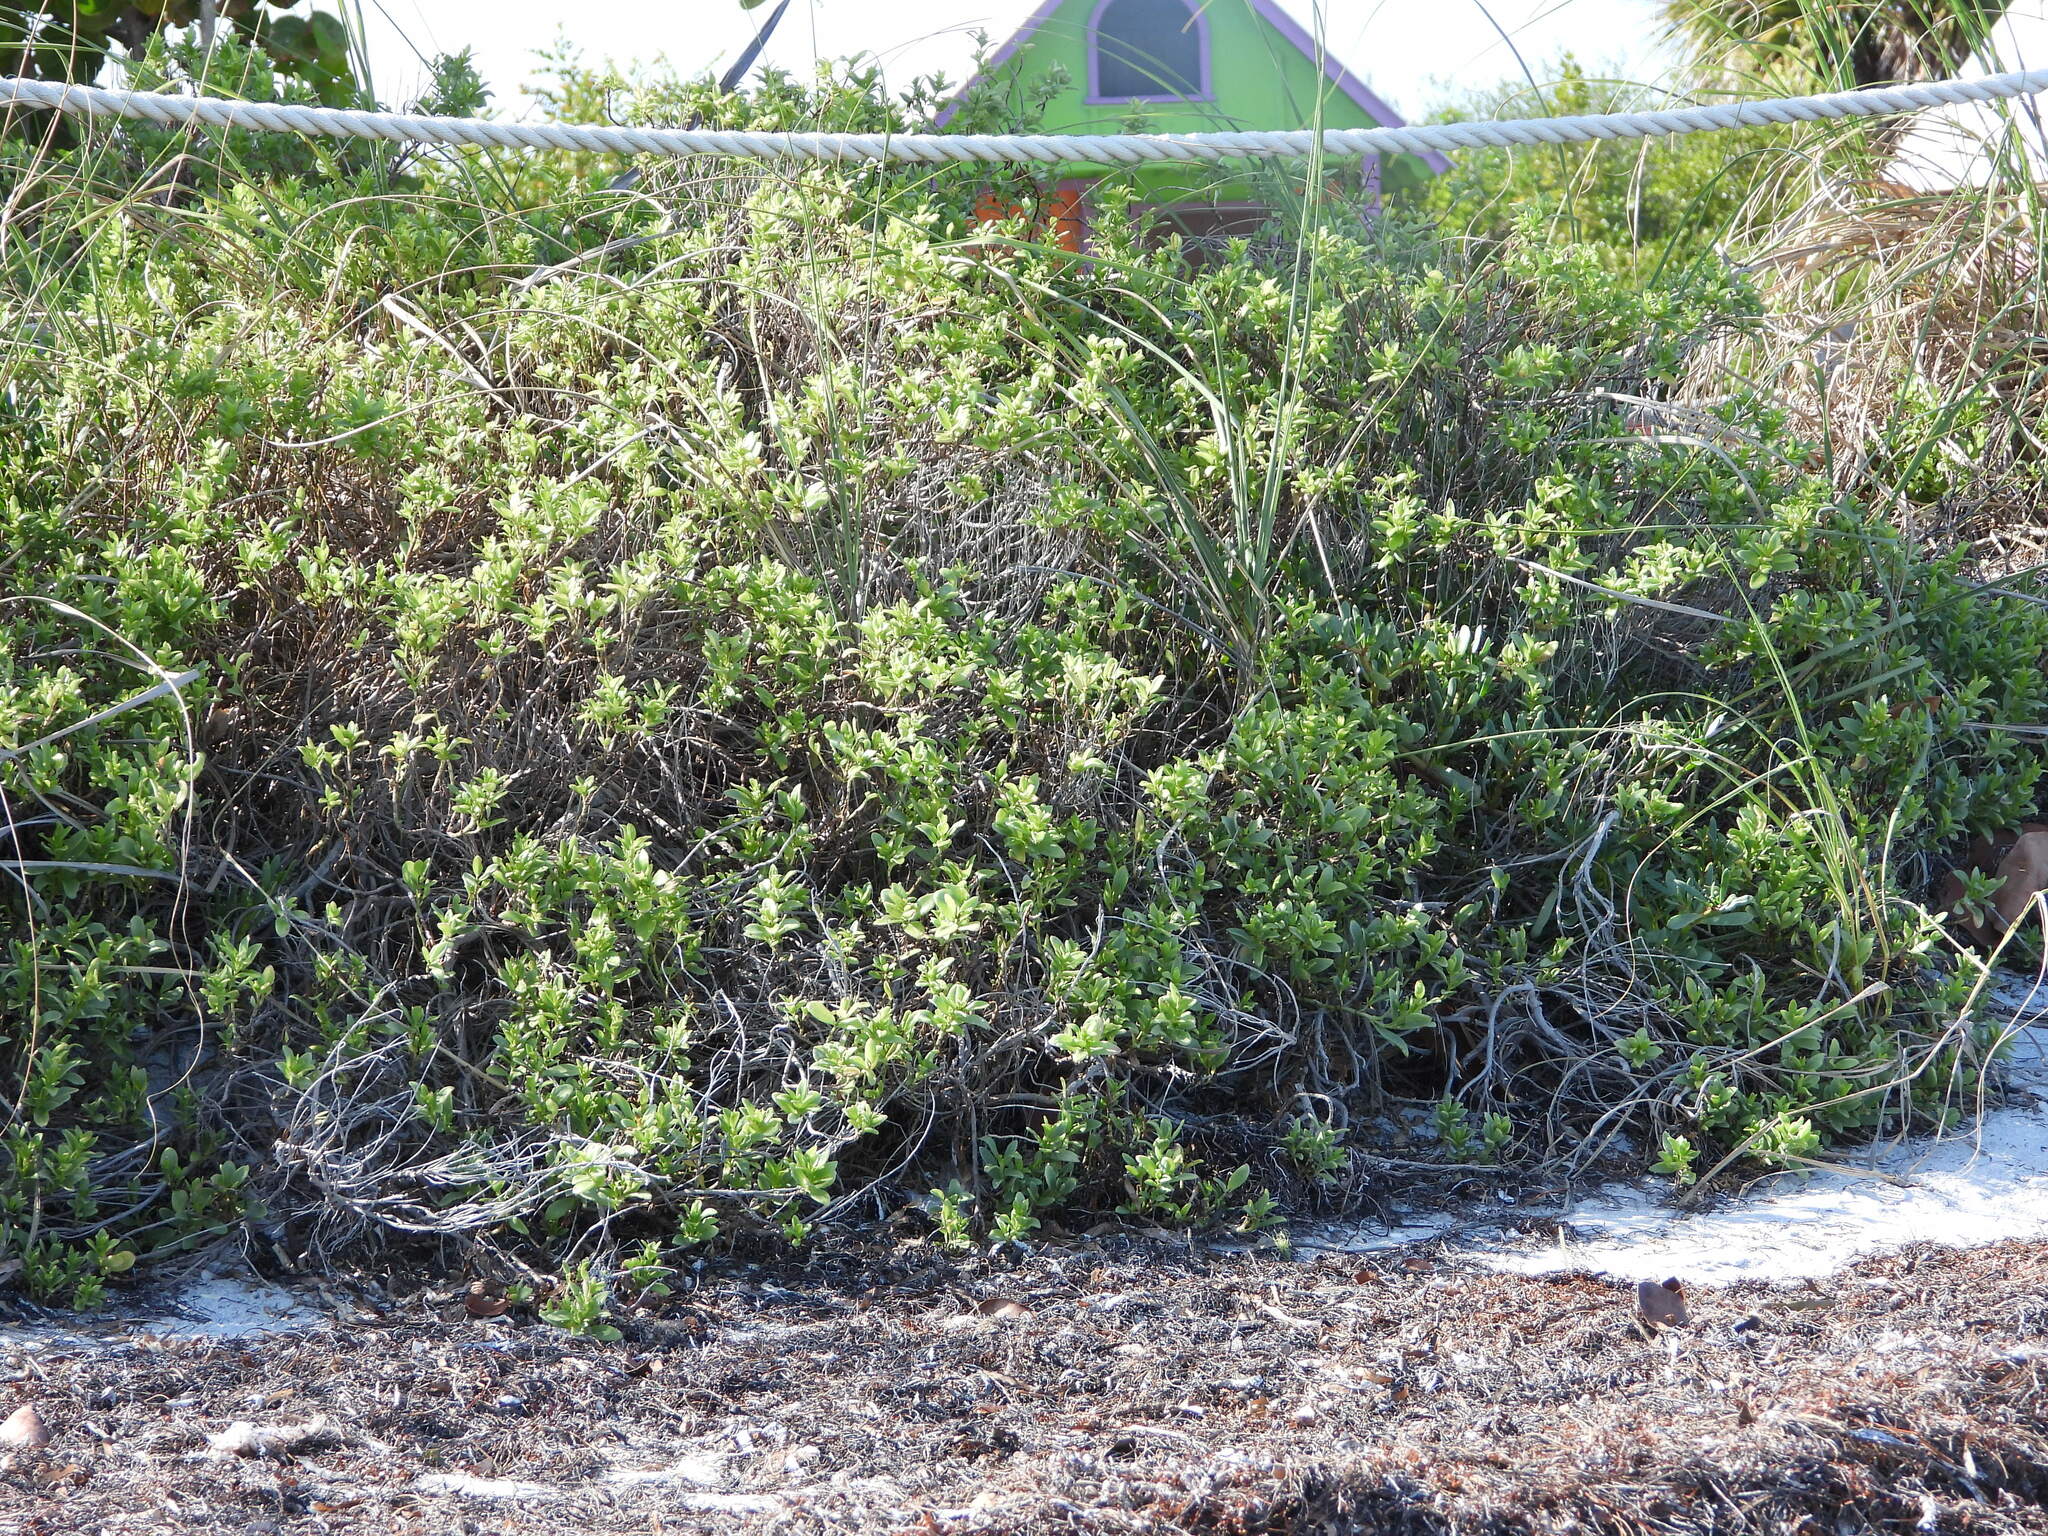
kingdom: Plantae
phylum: Tracheophyta
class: Magnoliopsida
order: Asterales
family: Asteraceae
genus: Iva
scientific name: Iva imbricata
